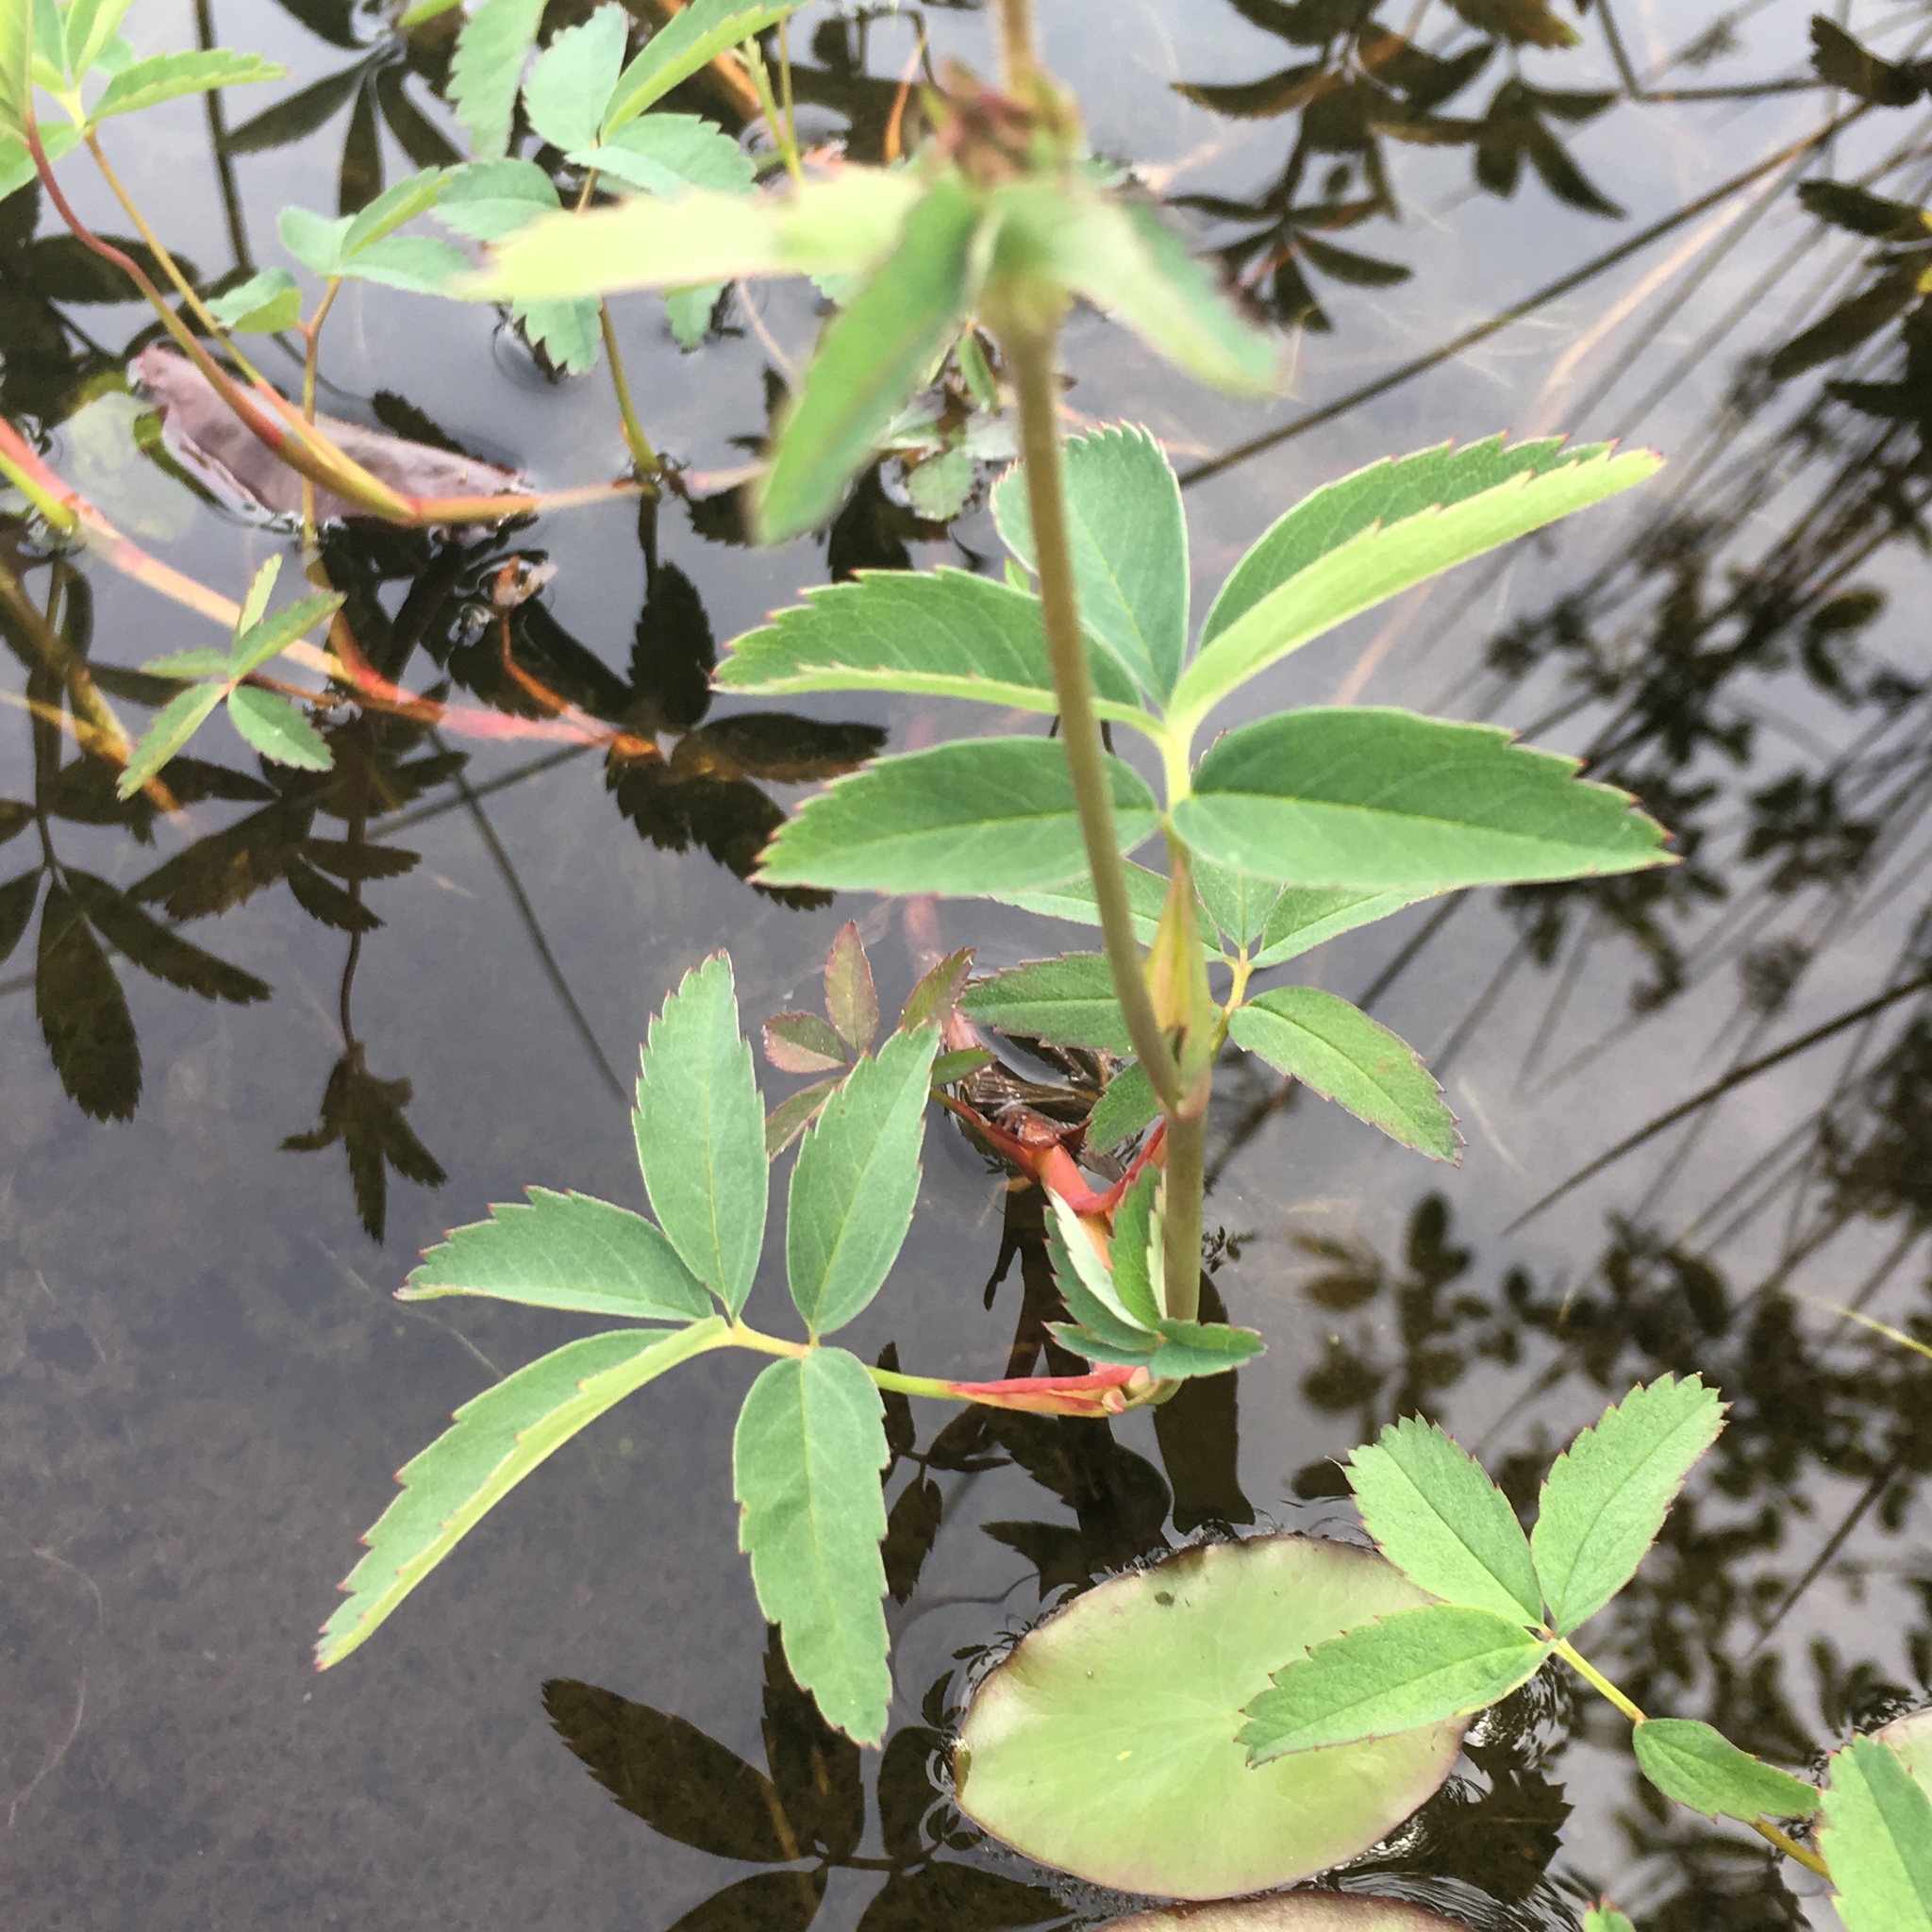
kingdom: Plantae
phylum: Tracheophyta
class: Magnoliopsida
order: Rosales
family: Rosaceae
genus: Comarum
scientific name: Comarum palustre
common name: Marsh cinquefoil
